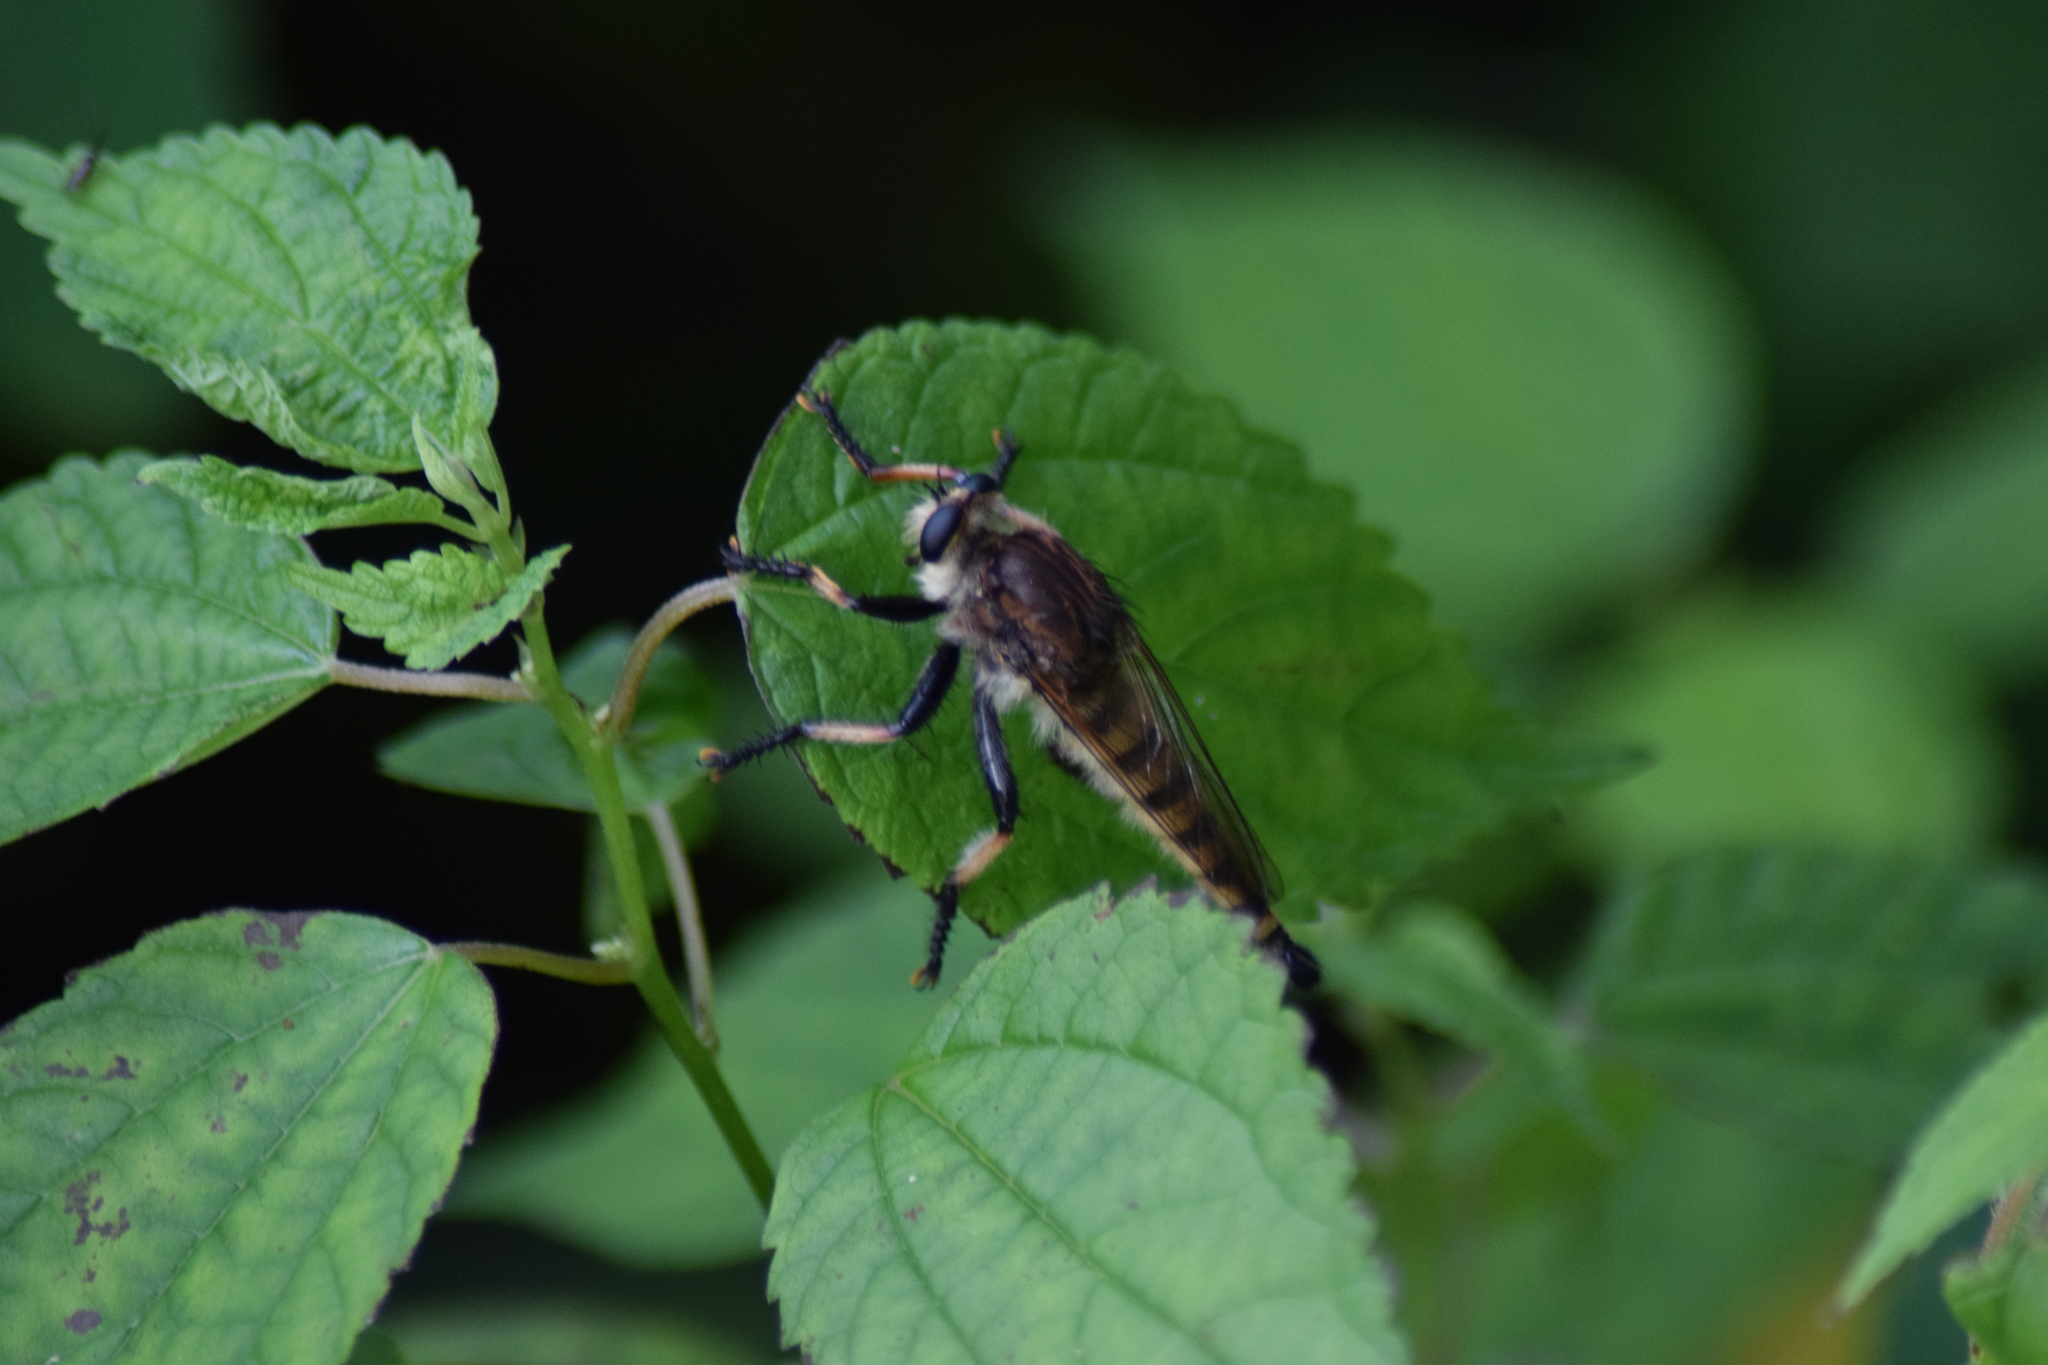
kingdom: Animalia
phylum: Arthropoda
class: Insecta
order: Diptera
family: Asilidae
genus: Promachus
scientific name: Promachus rufipes
